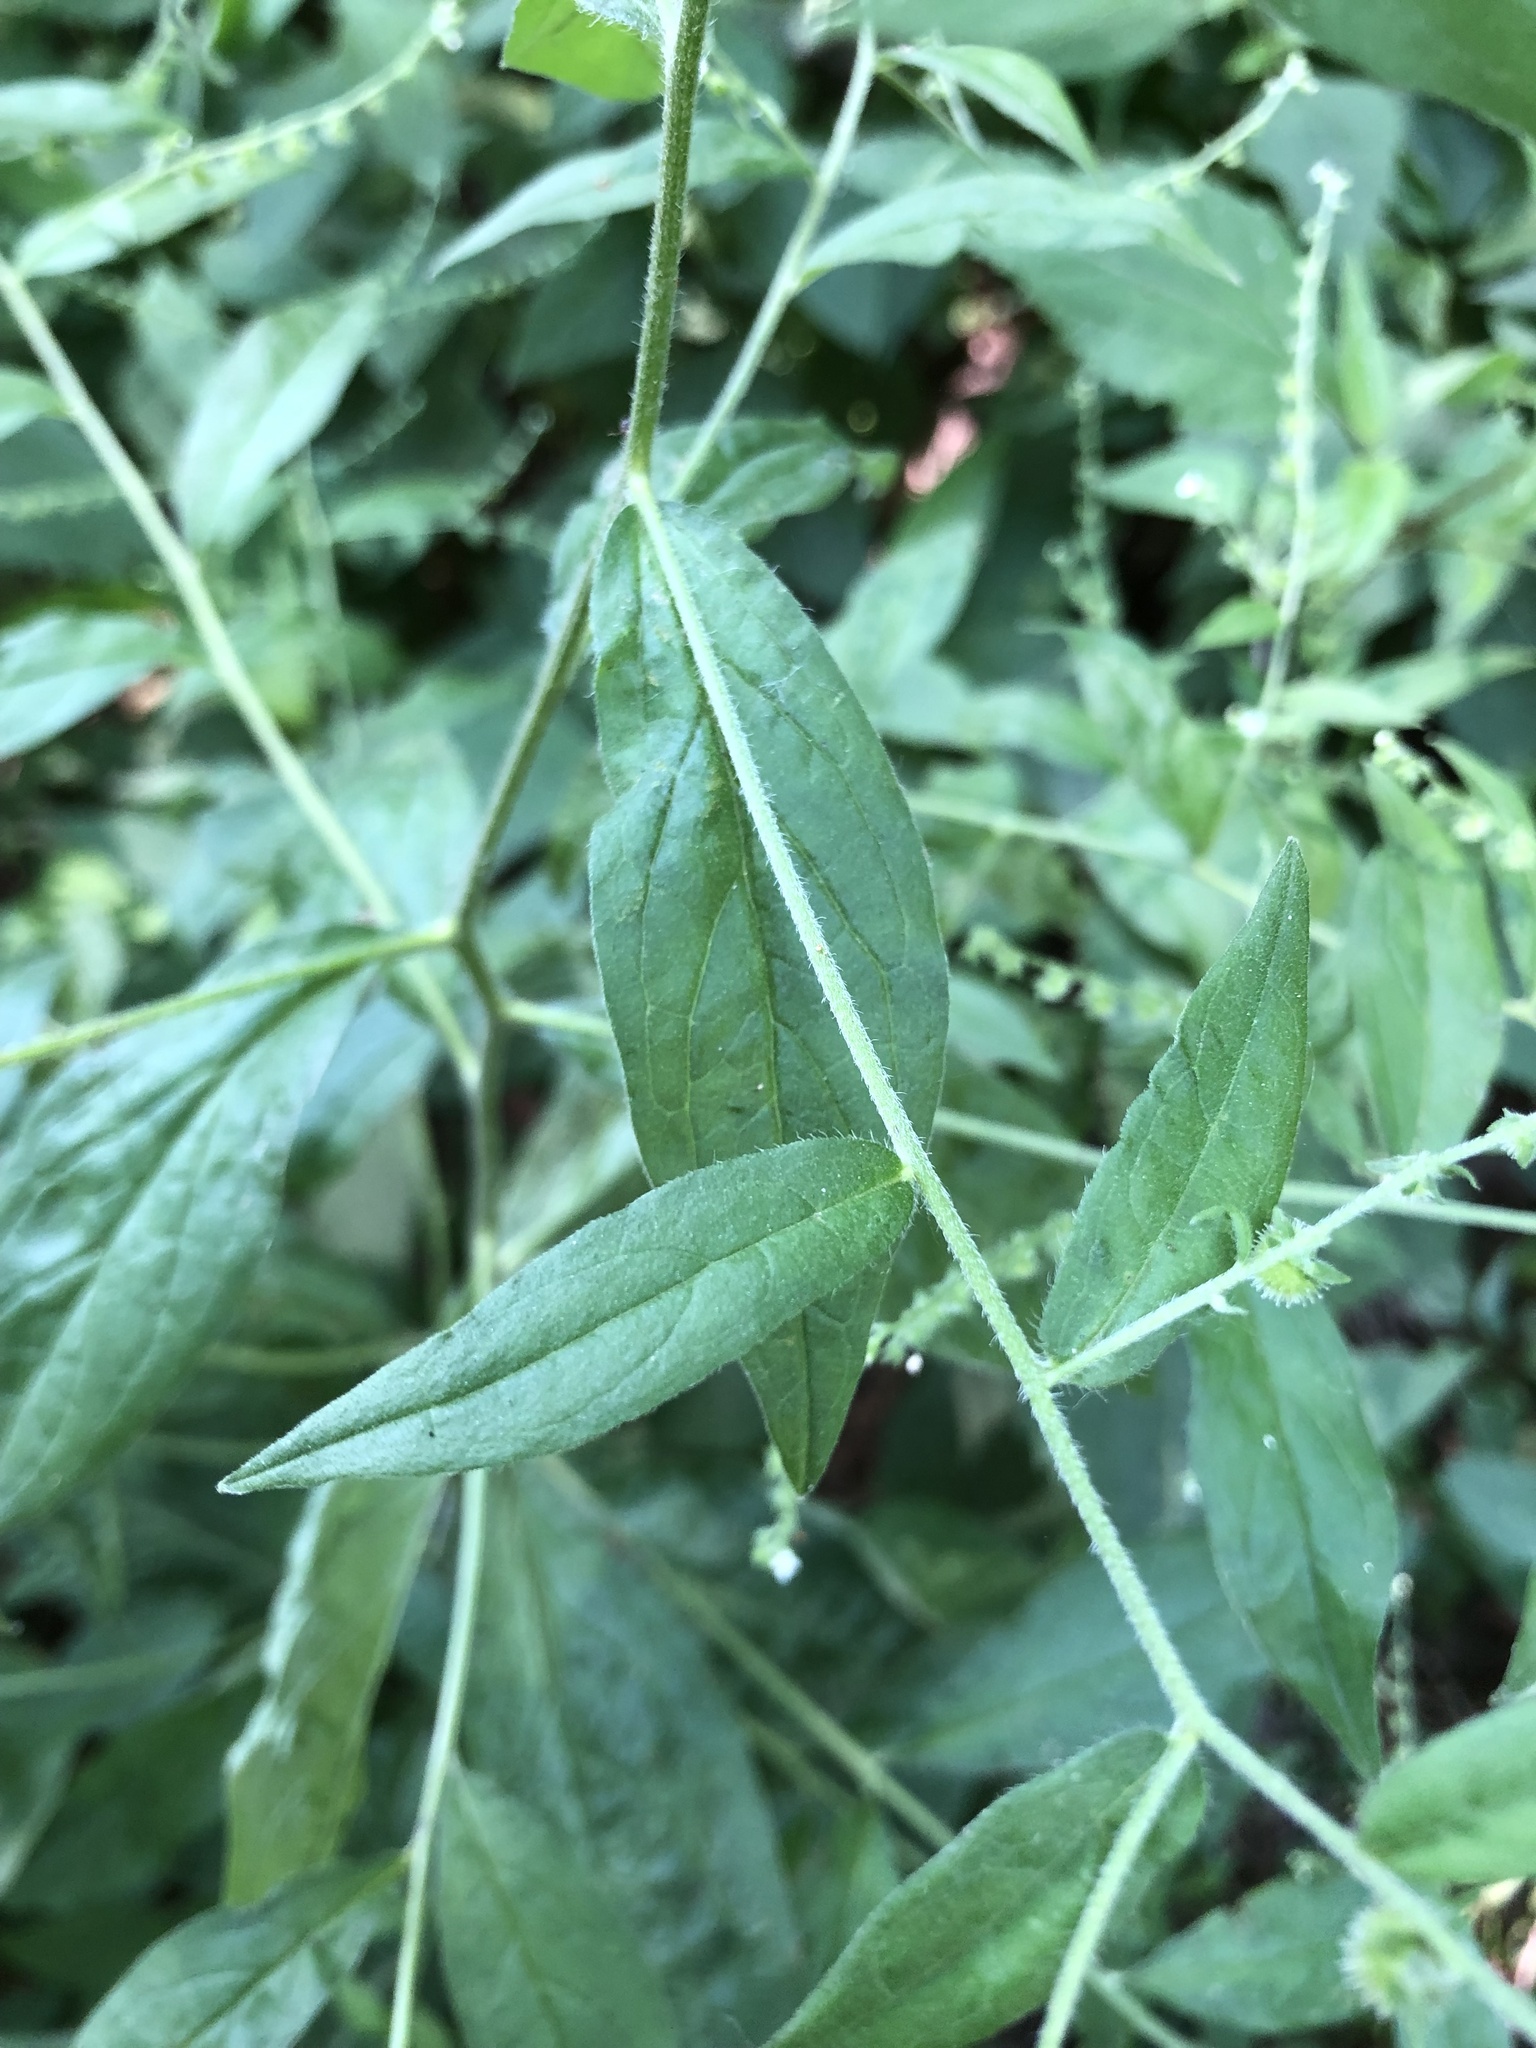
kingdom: Plantae
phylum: Tracheophyta
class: Magnoliopsida
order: Boraginales
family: Boraginaceae
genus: Hackelia
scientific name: Hackelia virginiana
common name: Beggar's-lice
